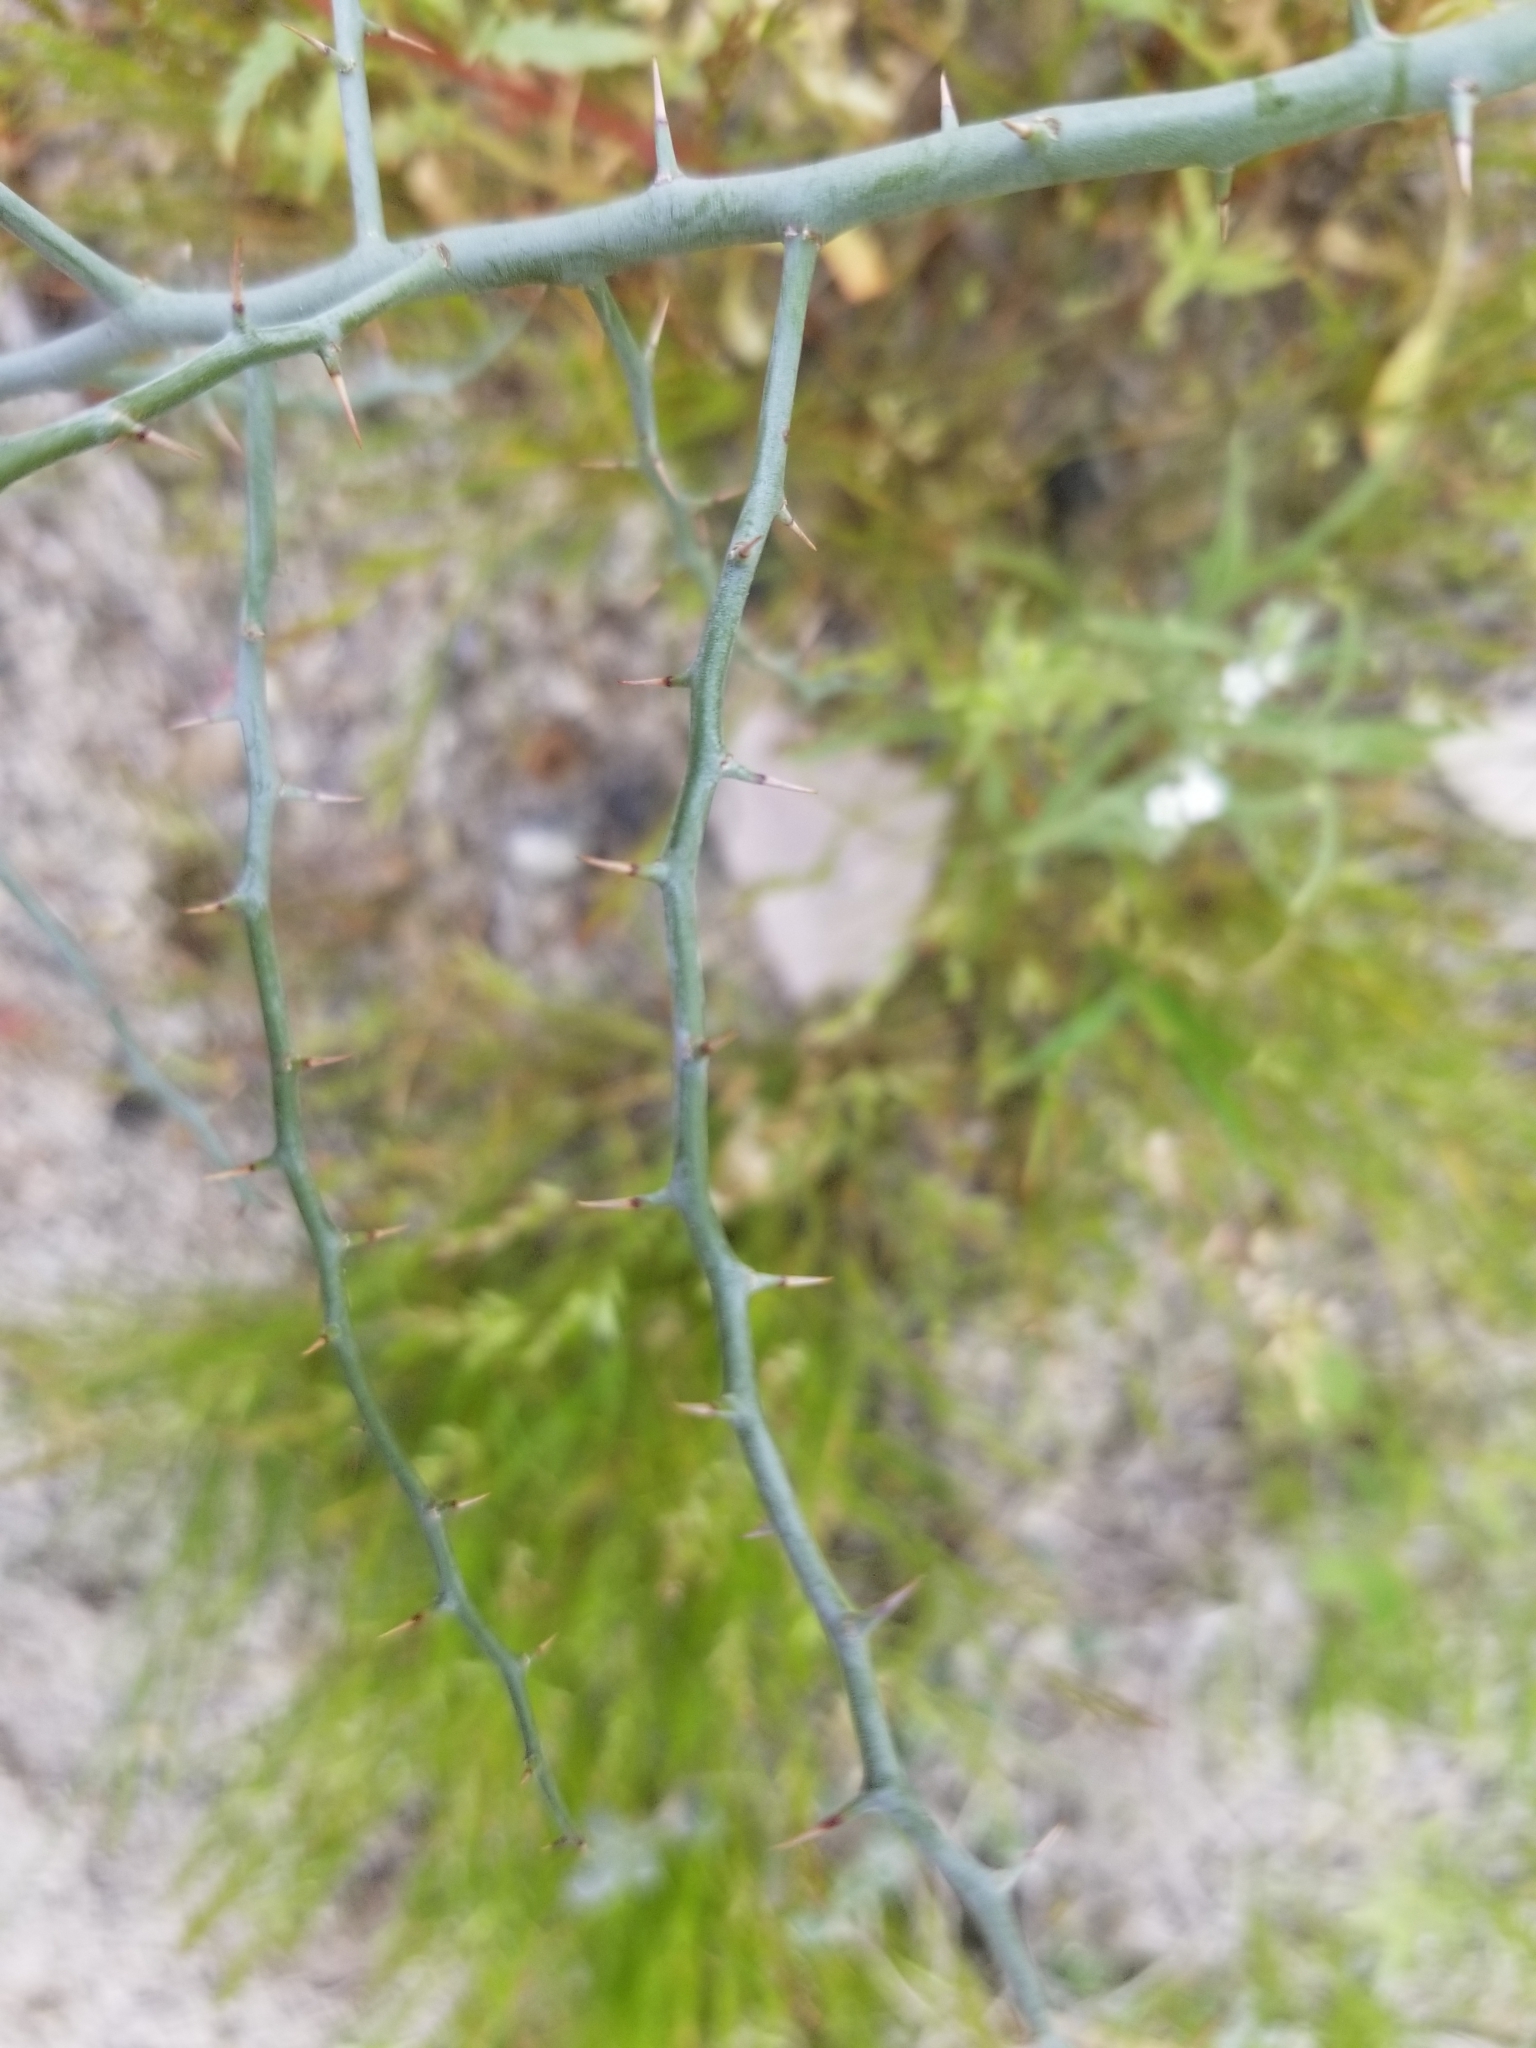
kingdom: Plantae
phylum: Tracheophyta
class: Magnoliopsida
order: Fabales
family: Fabaceae
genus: Parkinsonia
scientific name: Parkinsonia florida
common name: Blue paloverde
